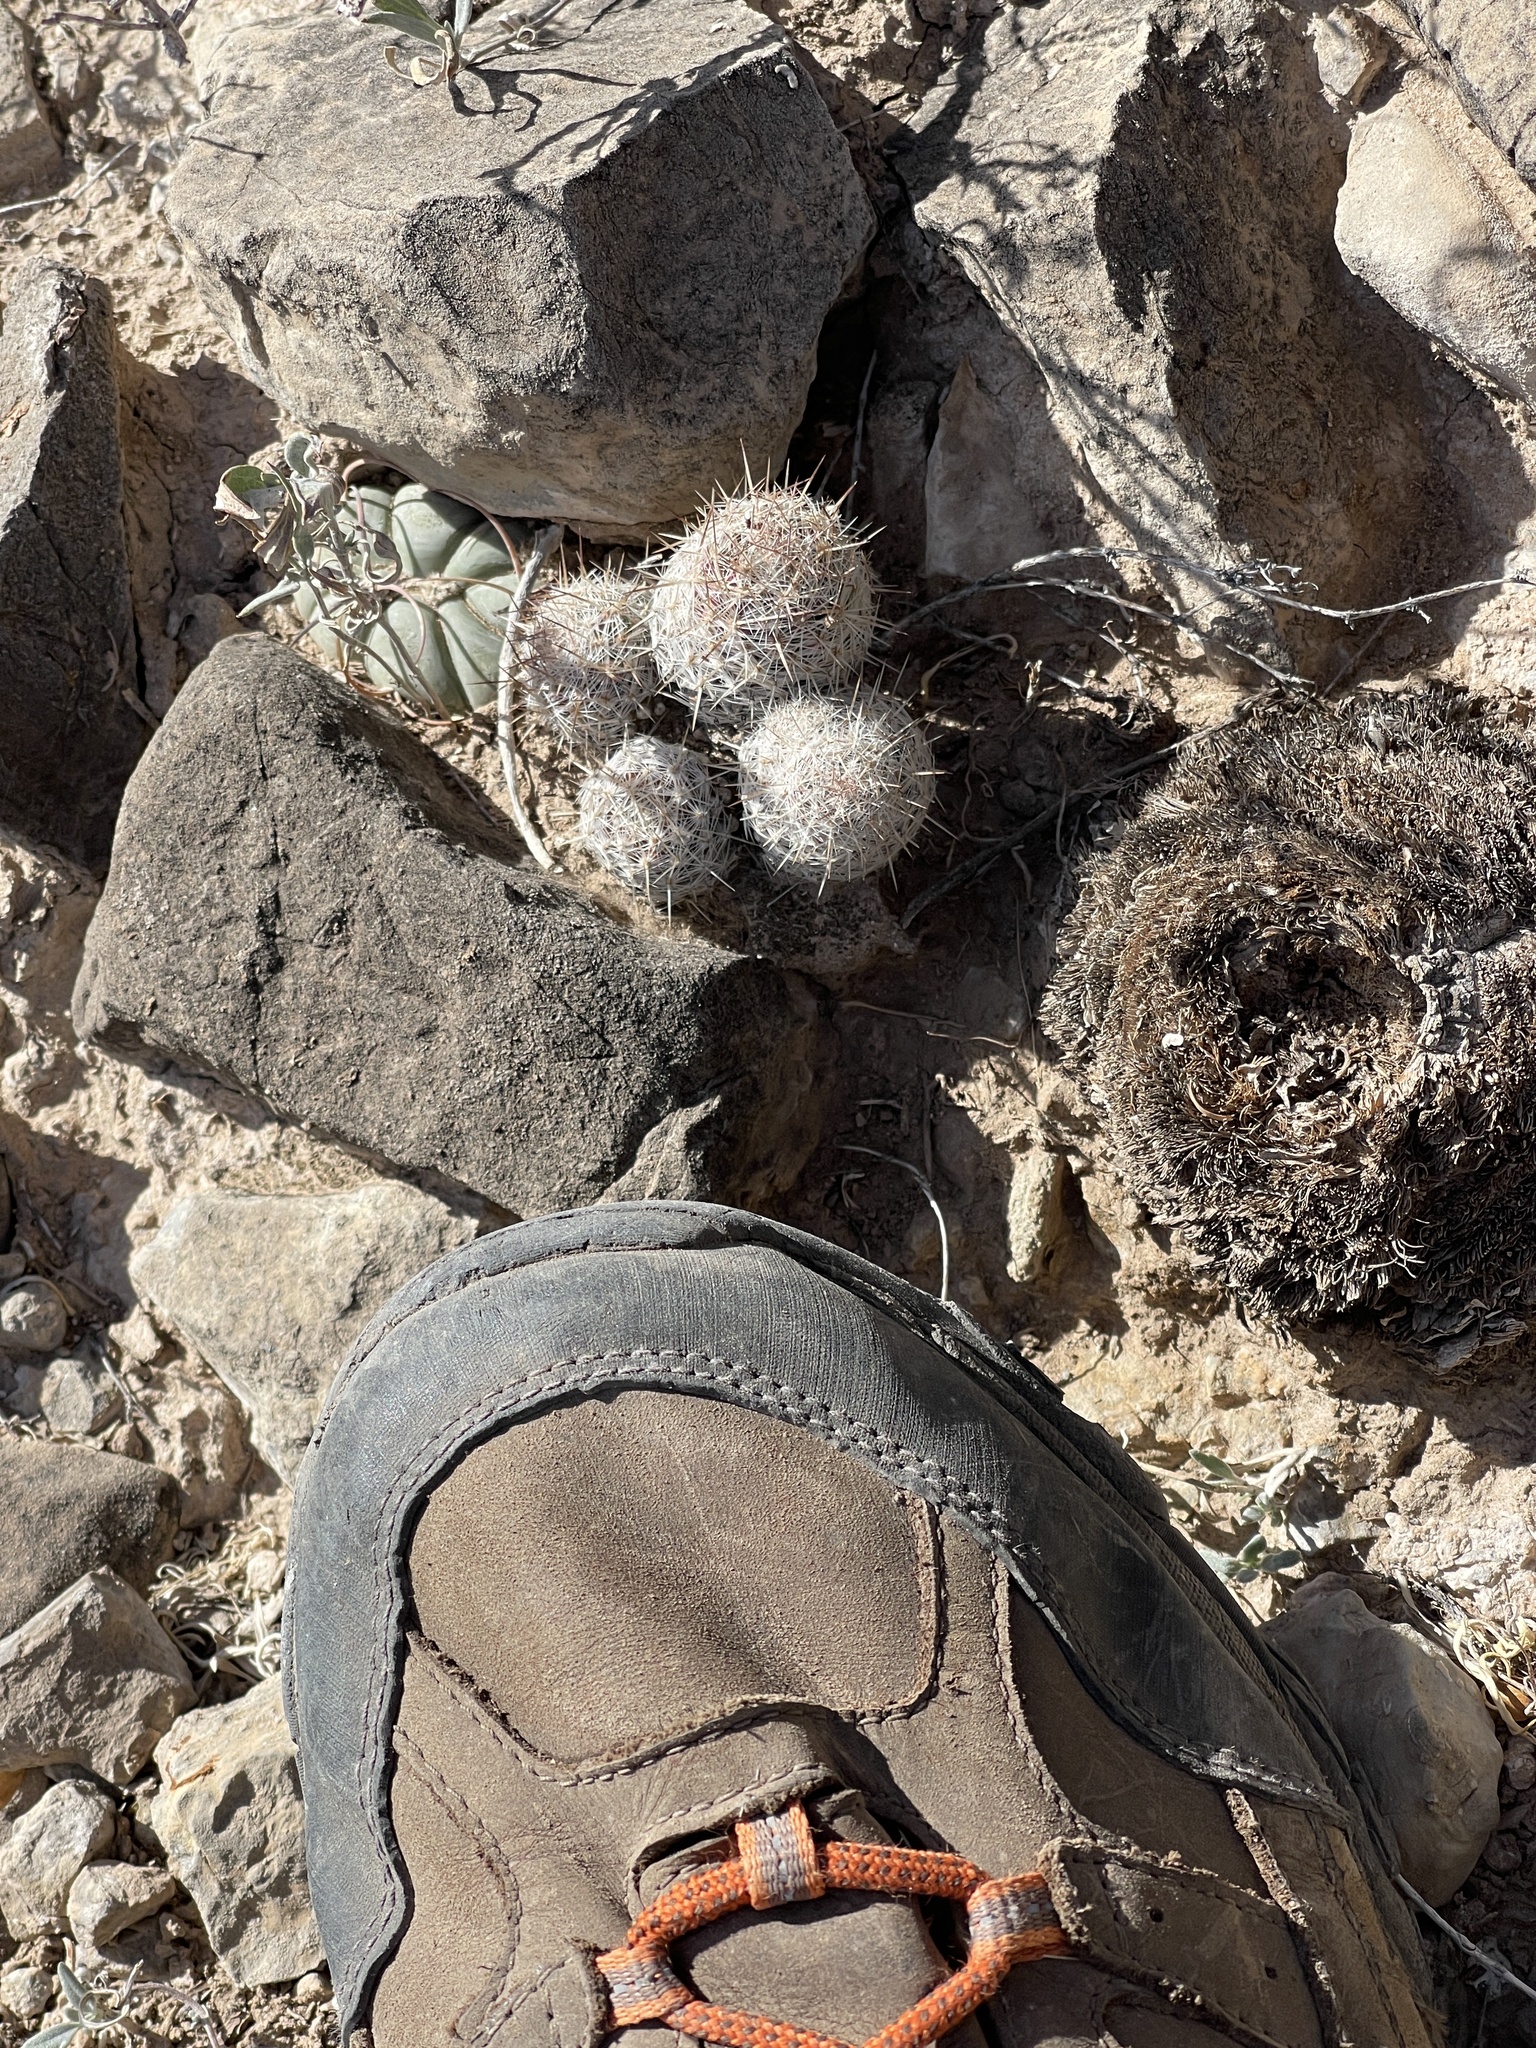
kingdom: Plantae
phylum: Tracheophyta
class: Magnoliopsida
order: Caryophyllales
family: Cactaceae
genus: Pelecyphora
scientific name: Pelecyphora tuberculosa
